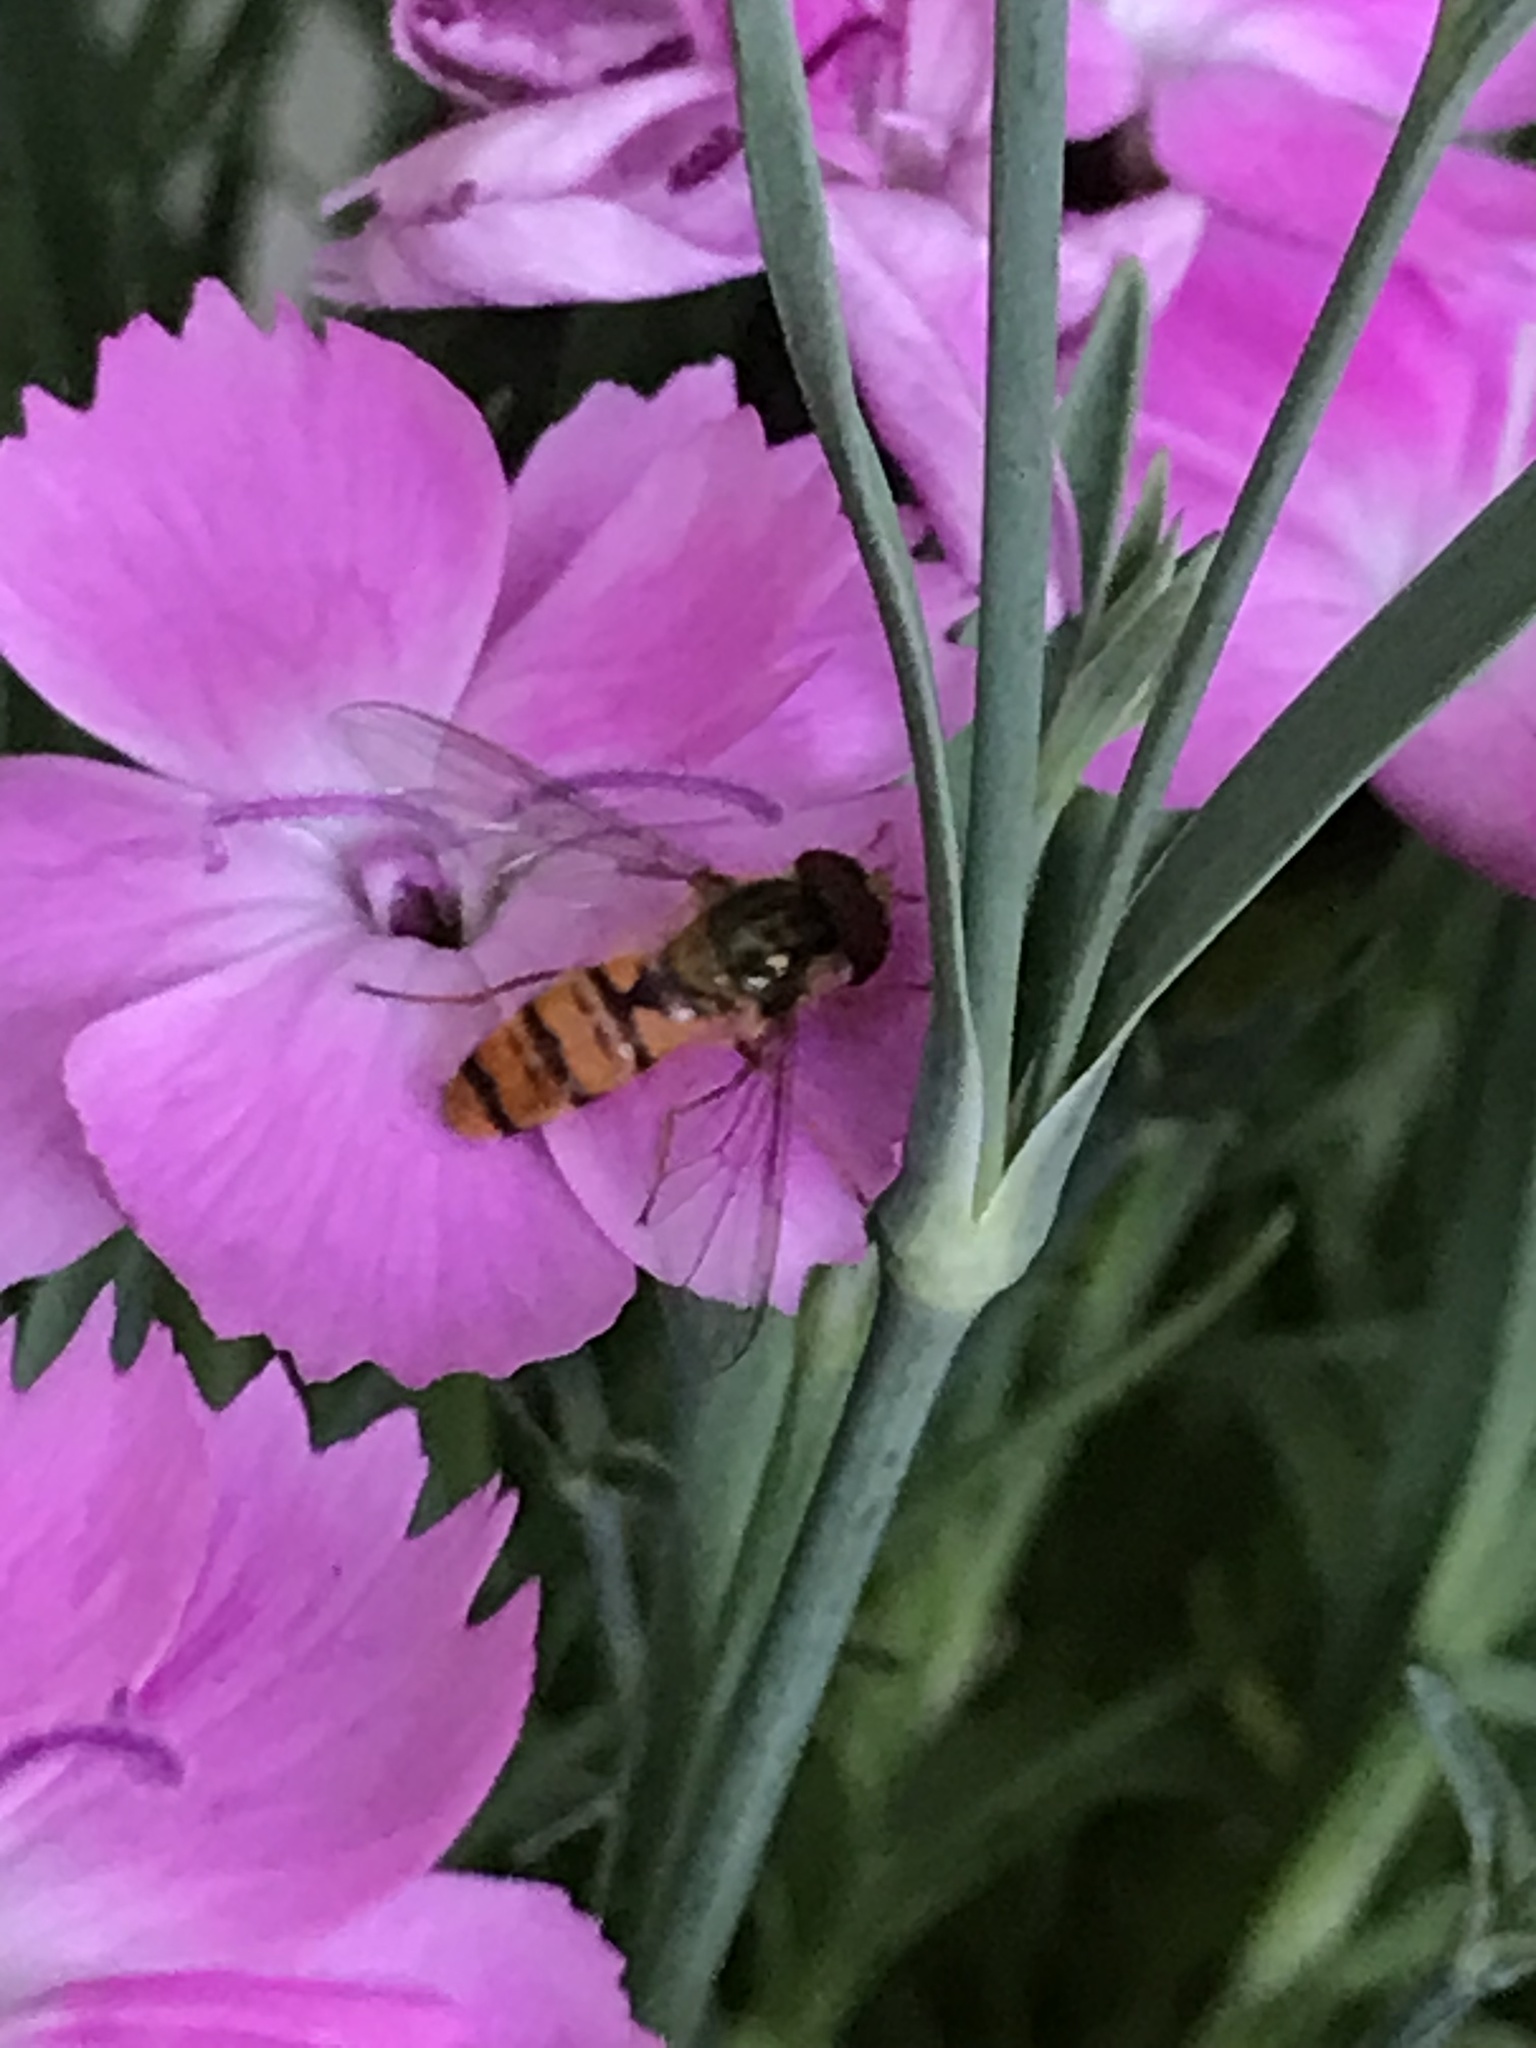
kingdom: Animalia
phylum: Arthropoda
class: Insecta
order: Diptera
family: Syrphidae
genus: Episyrphus
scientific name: Episyrphus balteatus
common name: Marmalade hoverfly
